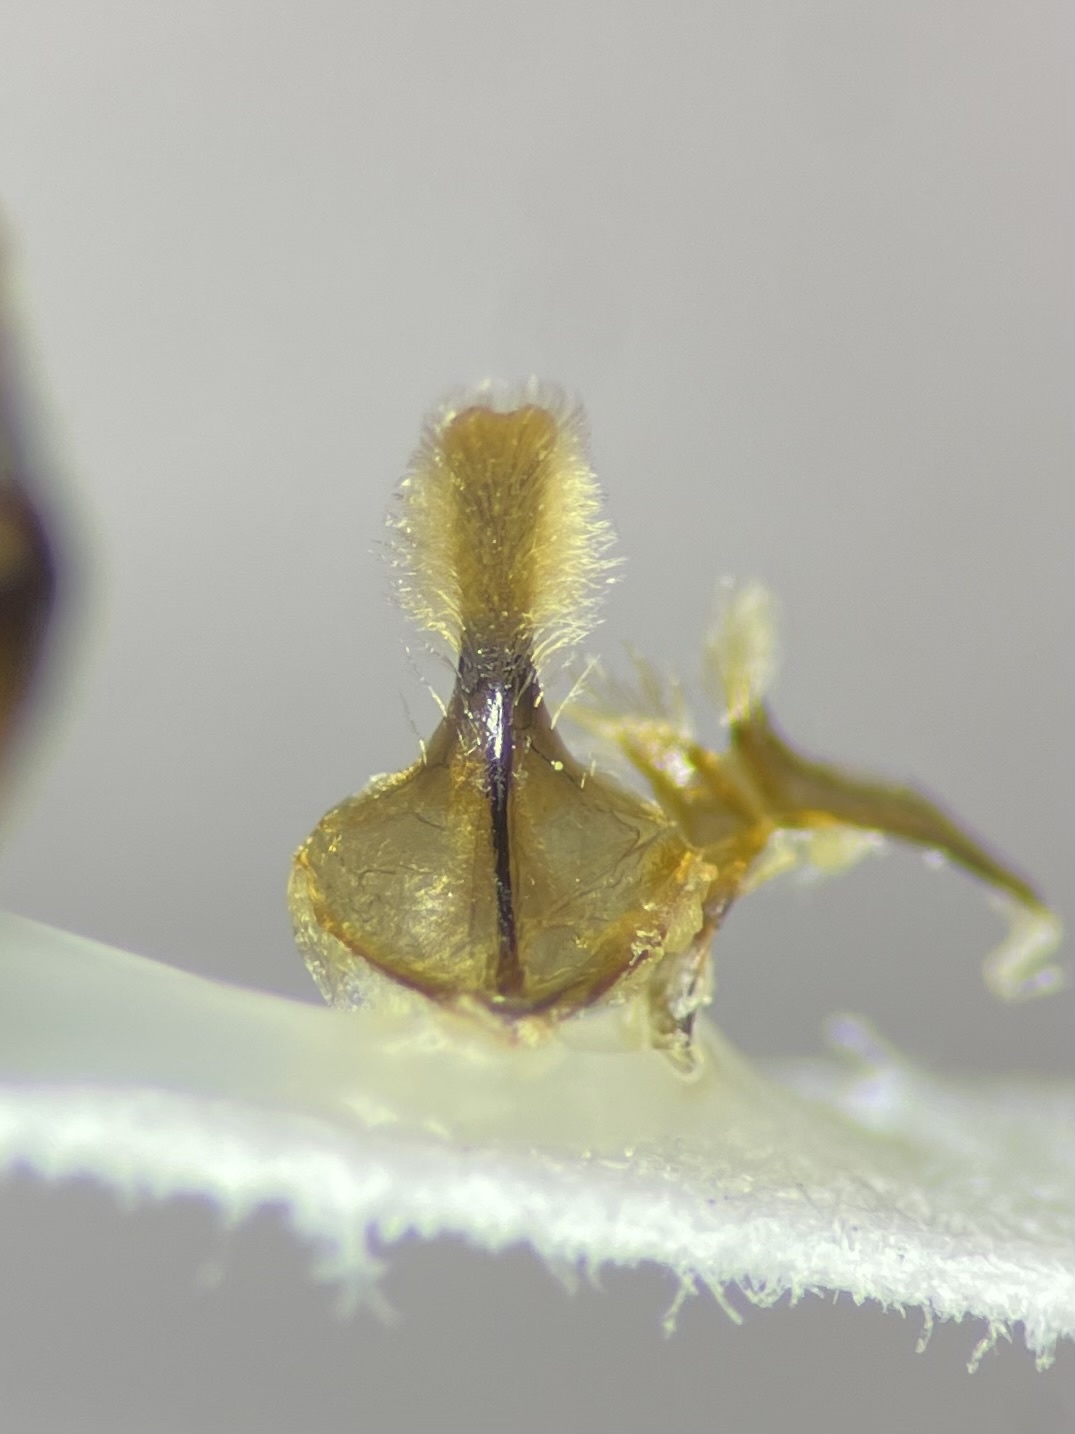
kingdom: Animalia
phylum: Arthropoda
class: Insecta
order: Hymenoptera
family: Andrenidae
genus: Andrena
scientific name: Andrena confederata
